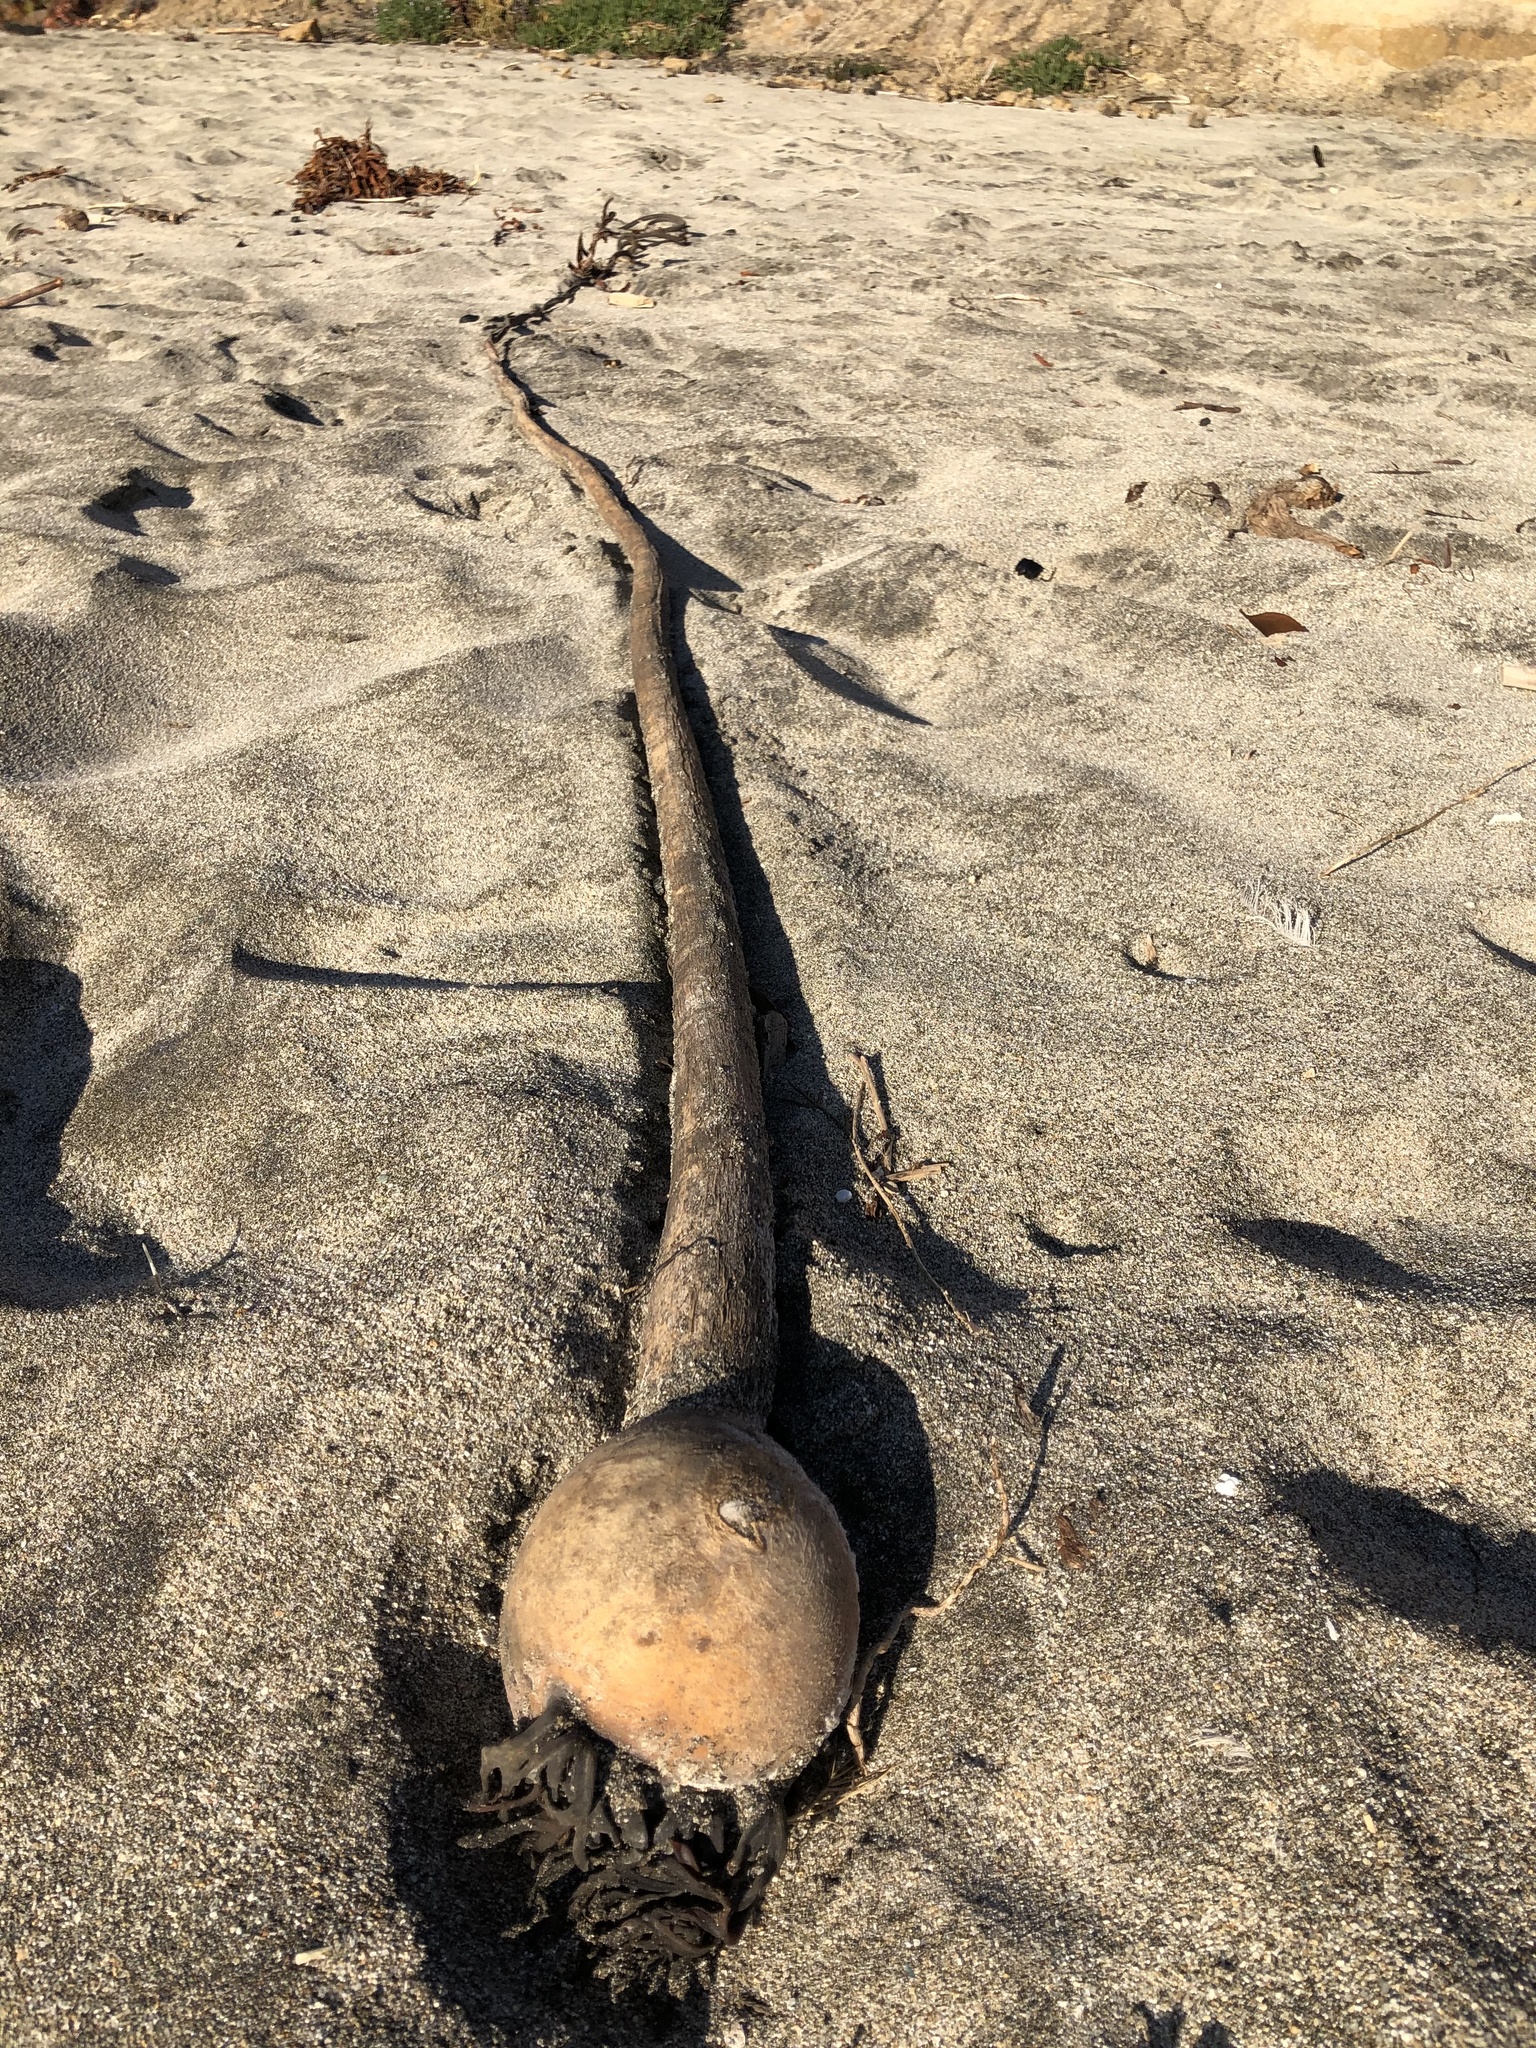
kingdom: Chromista
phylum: Ochrophyta
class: Phaeophyceae
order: Laminariales
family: Laminariaceae
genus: Nereocystis
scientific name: Nereocystis luetkeana
